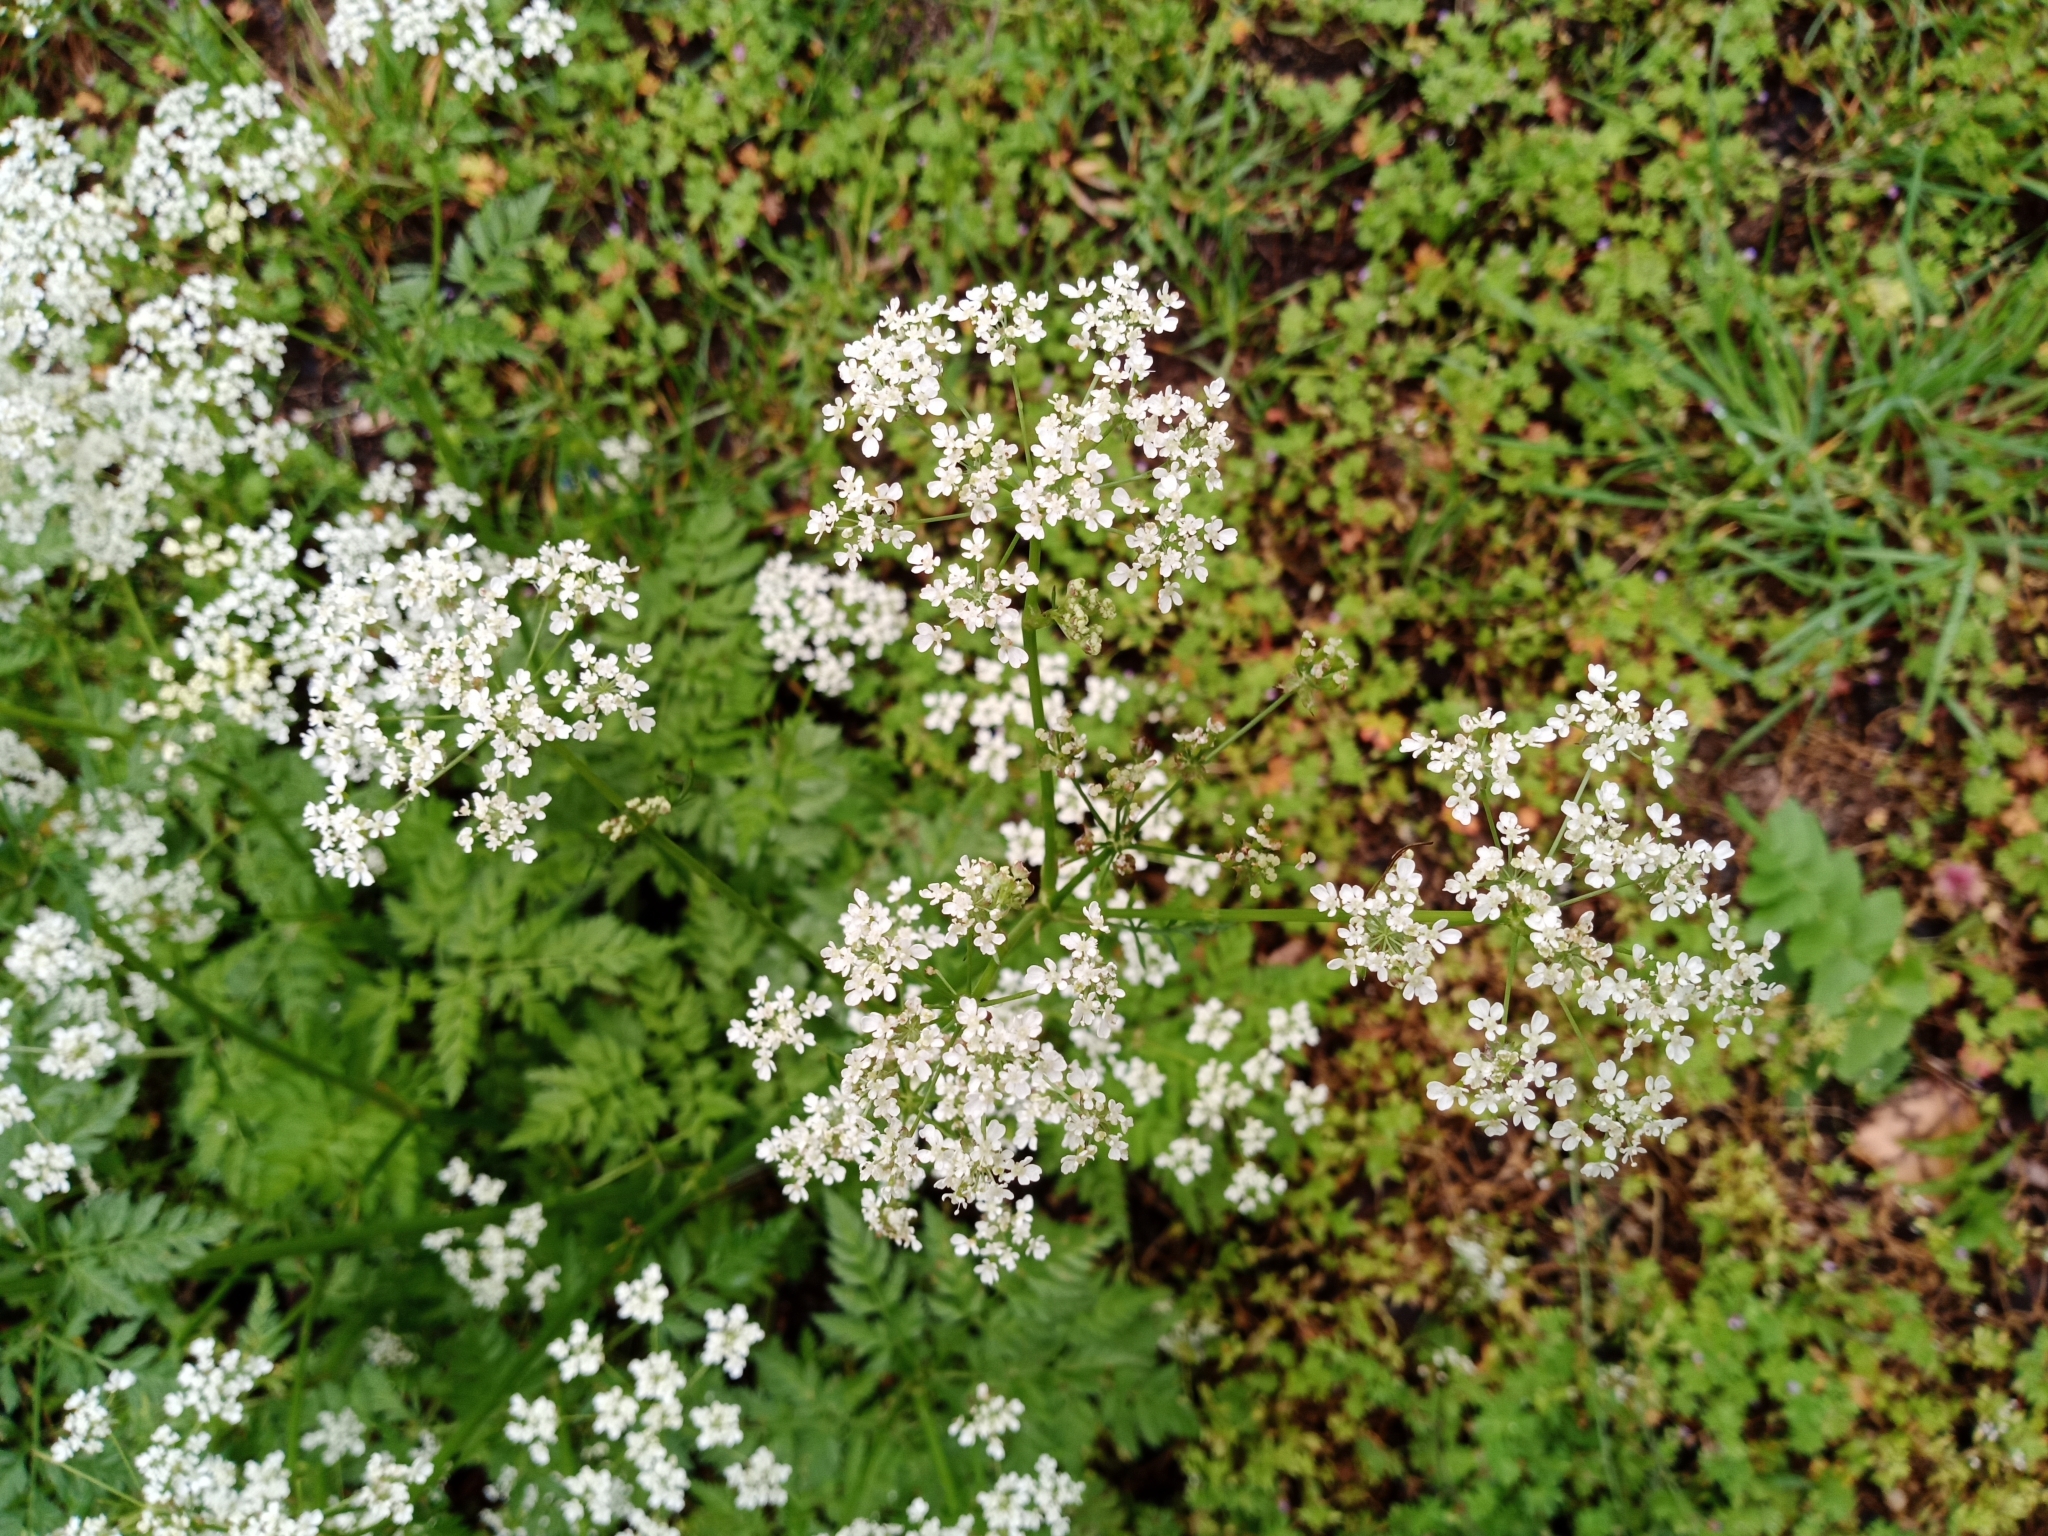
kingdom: Plantae
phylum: Tracheophyta
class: Magnoliopsida
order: Apiales
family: Apiaceae
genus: Anthriscus
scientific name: Anthriscus sylvestris
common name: Cow parsley
